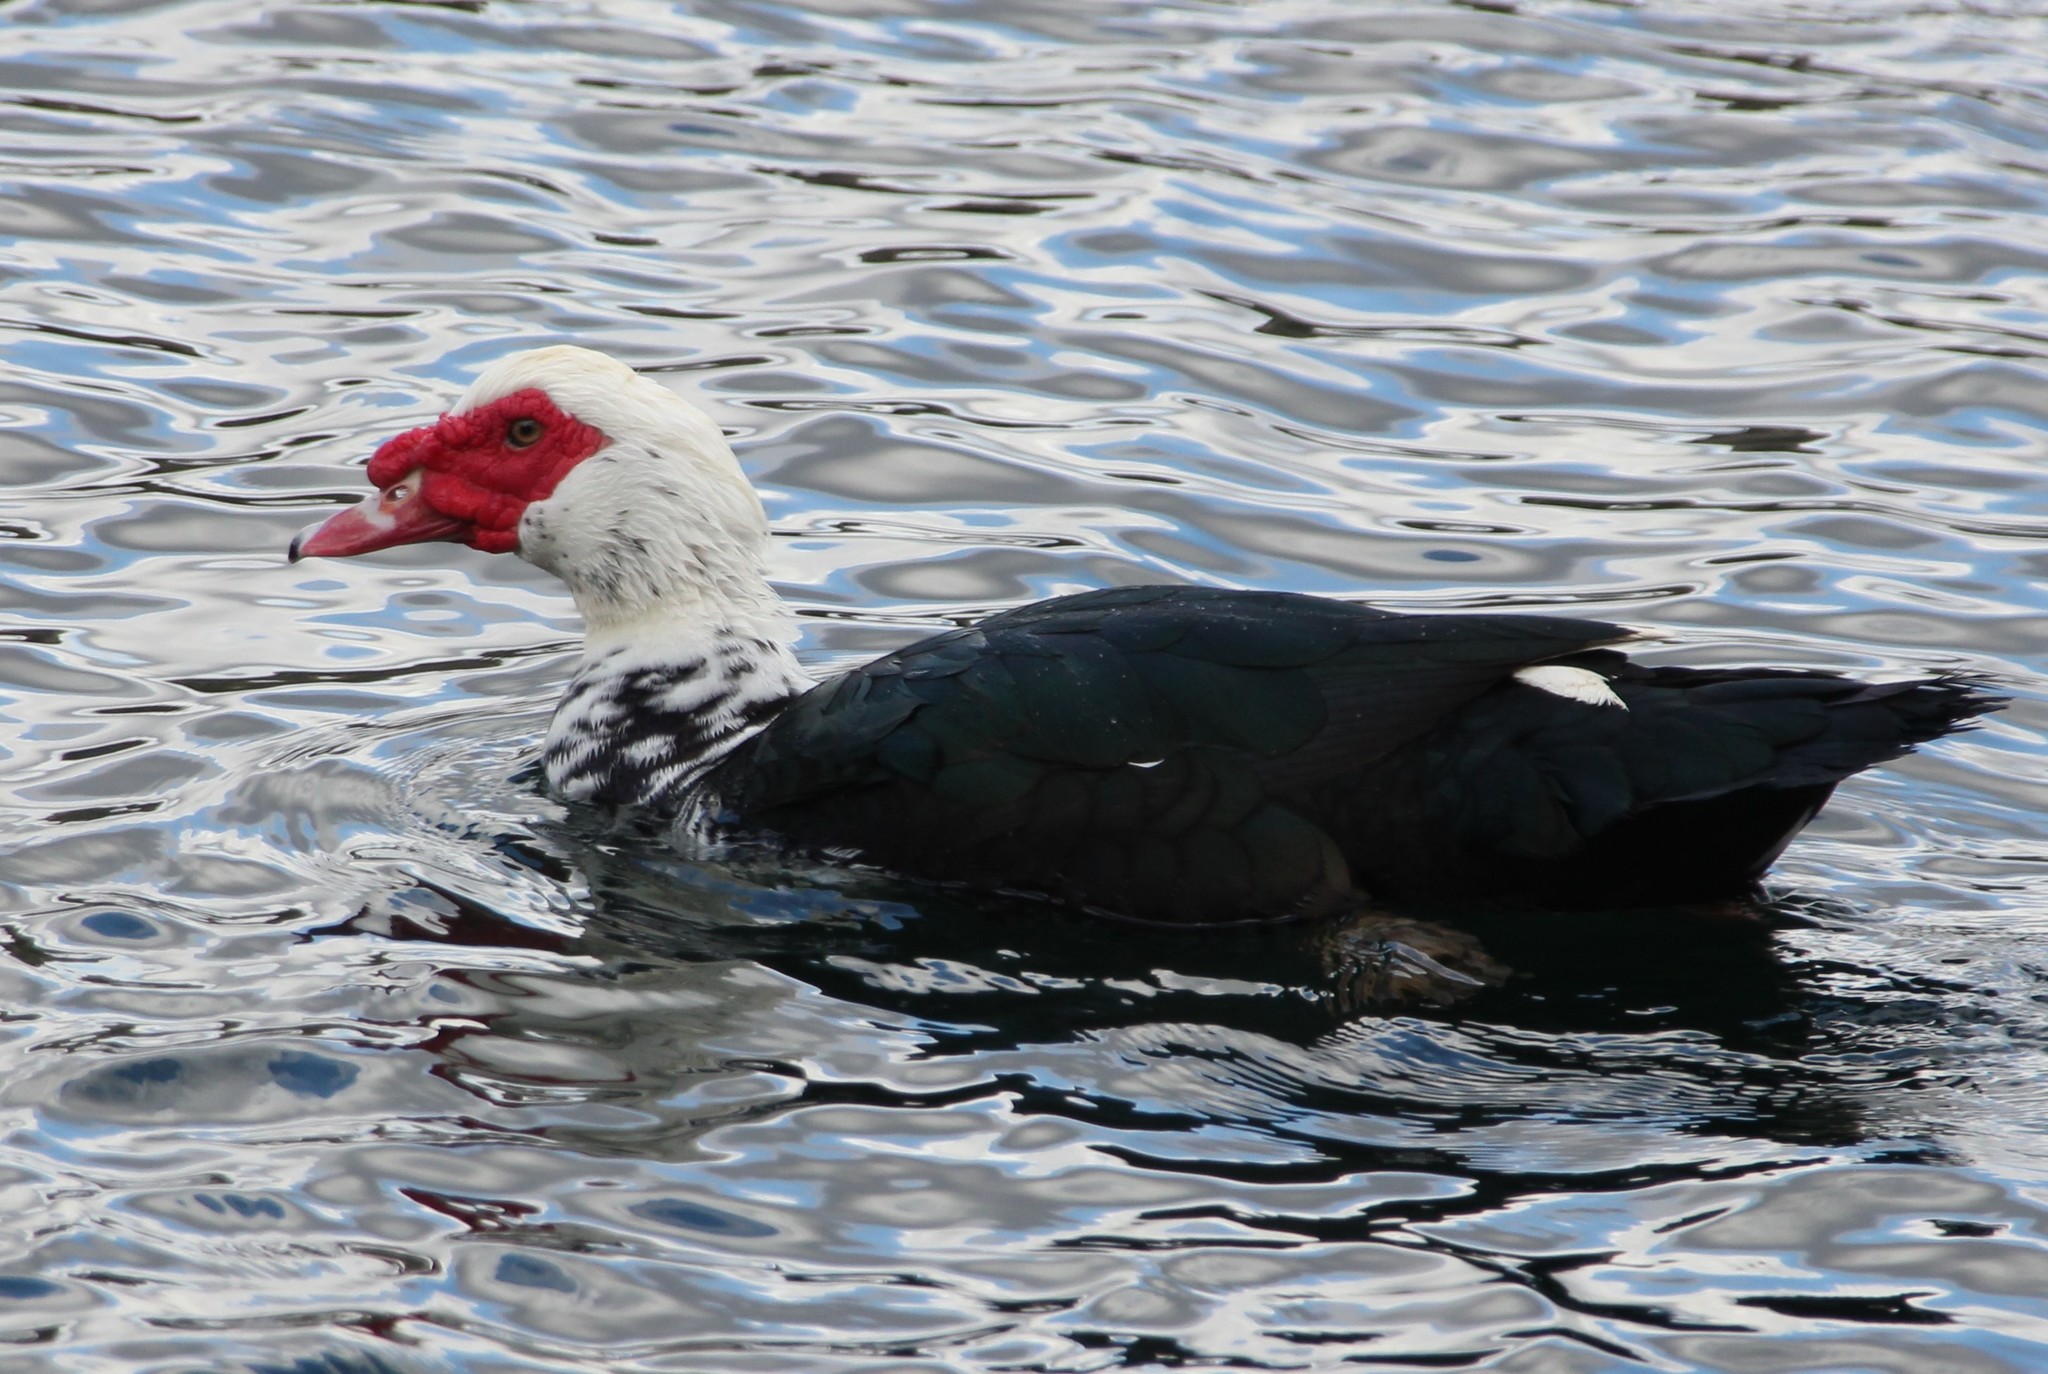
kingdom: Animalia
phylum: Chordata
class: Aves
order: Anseriformes
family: Anatidae
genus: Cairina
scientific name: Cairina moschata
